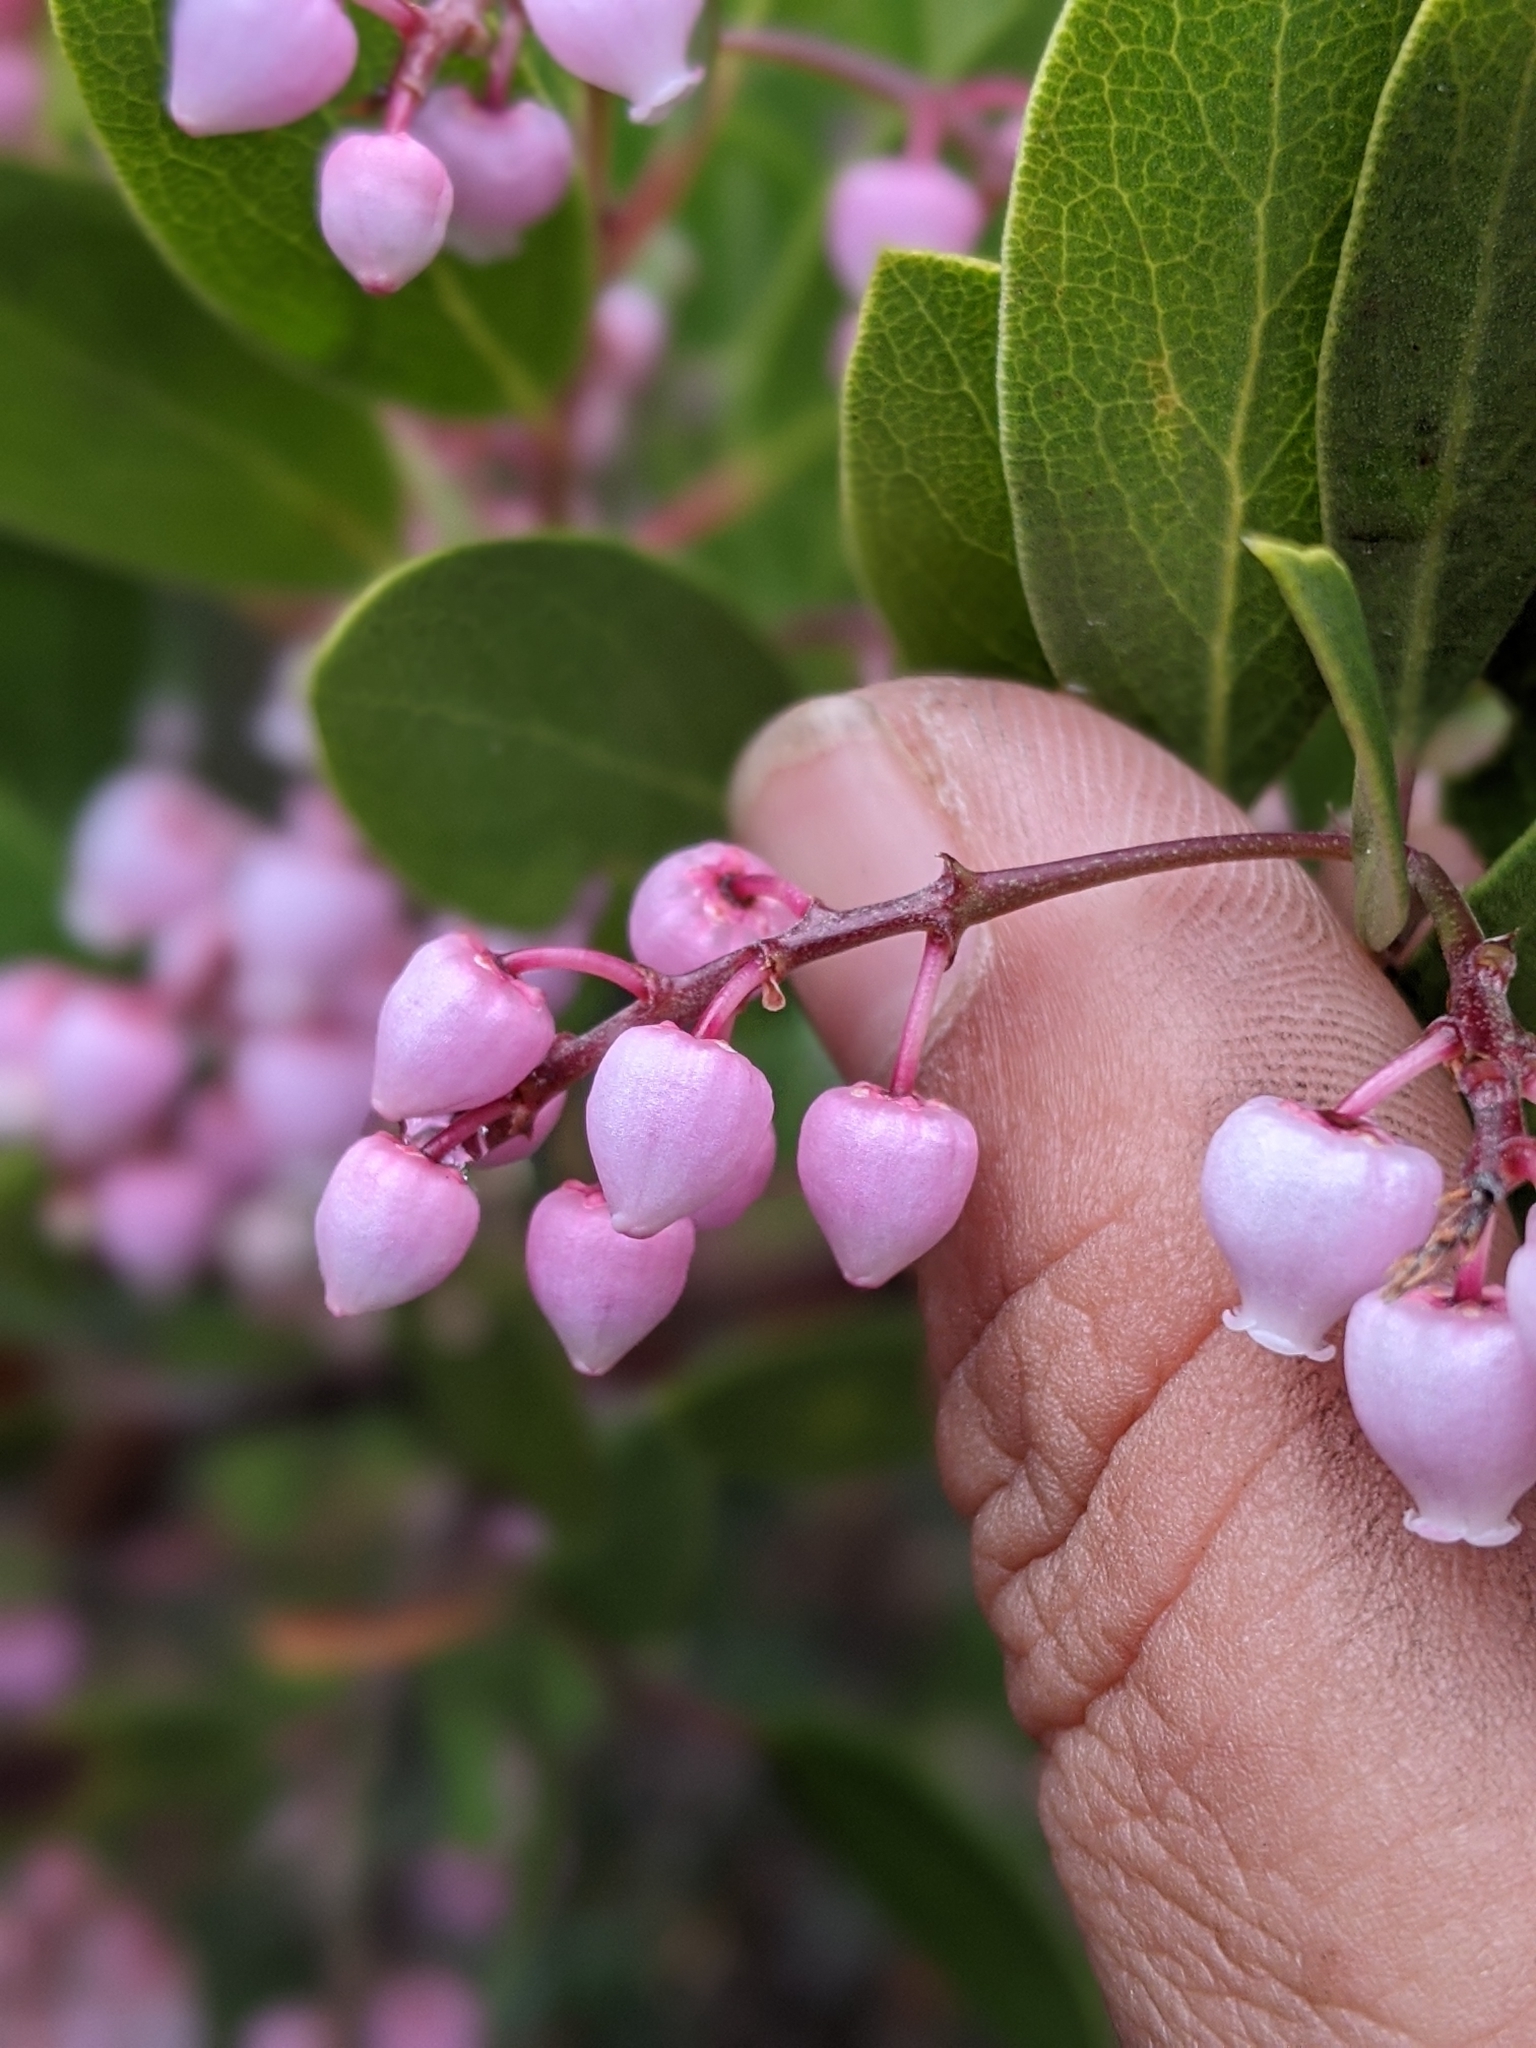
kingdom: Plantae
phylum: Tracheophyta
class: Magnoliopsida
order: Ericales
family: Ericaceae
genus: Arctostaphylos
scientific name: Arctostaphylos stanfordiana
